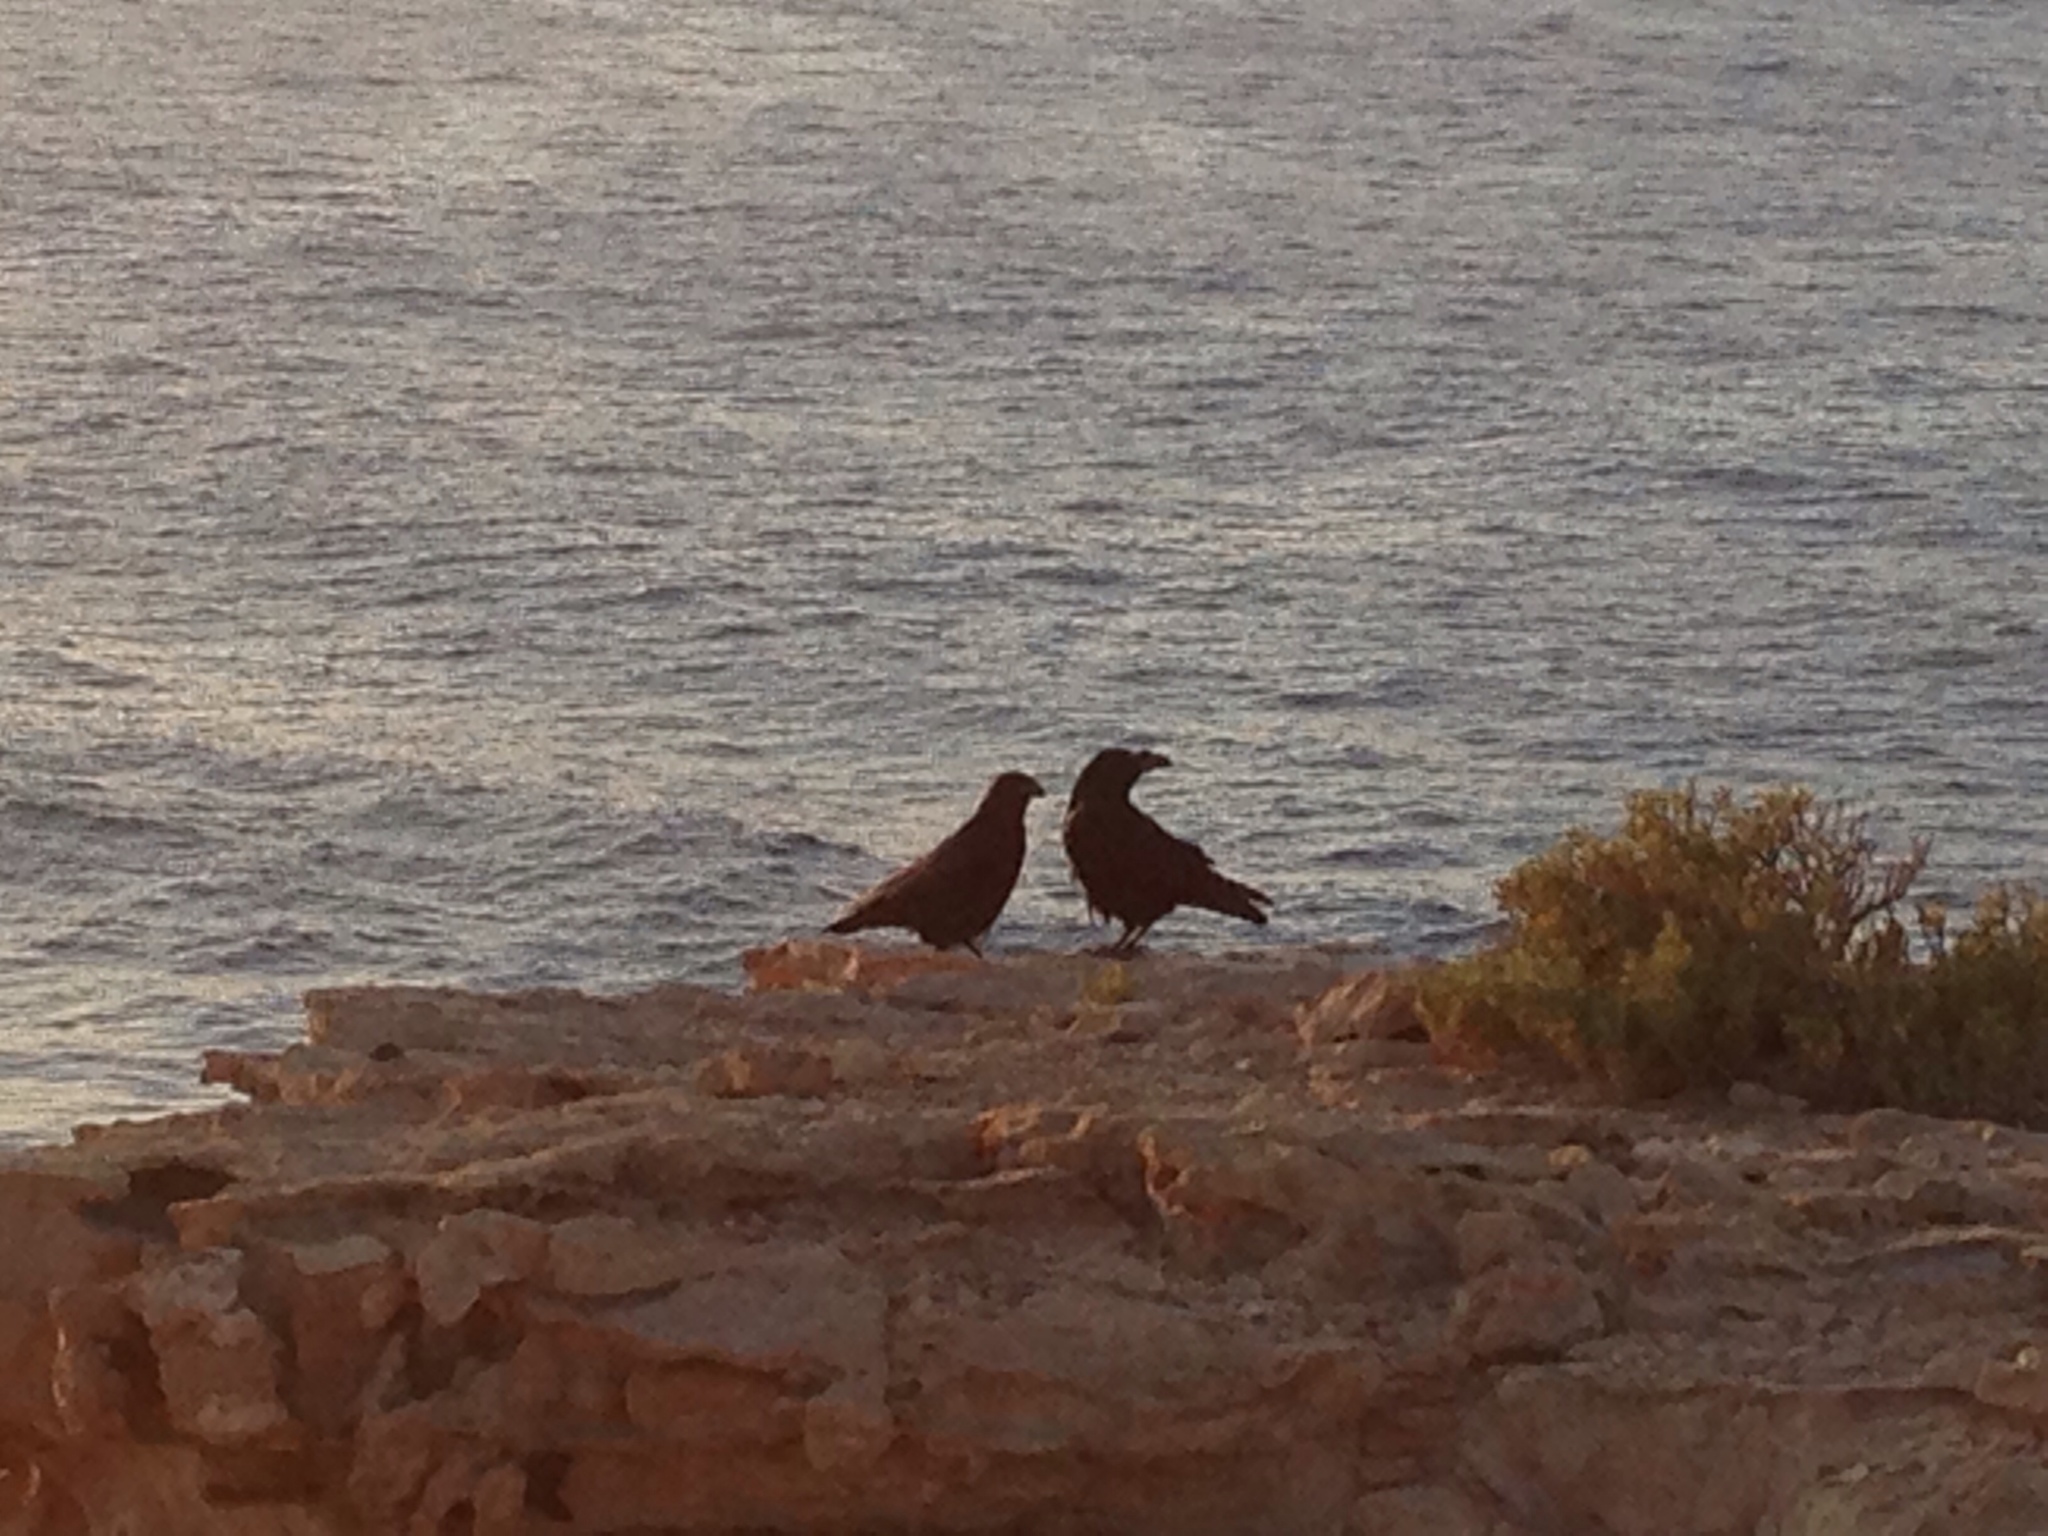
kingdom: Animalia
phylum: Chordata
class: Aves
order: Passeriformes
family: Corvidae
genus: Corvus
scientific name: Corvus corax
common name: Common raven
